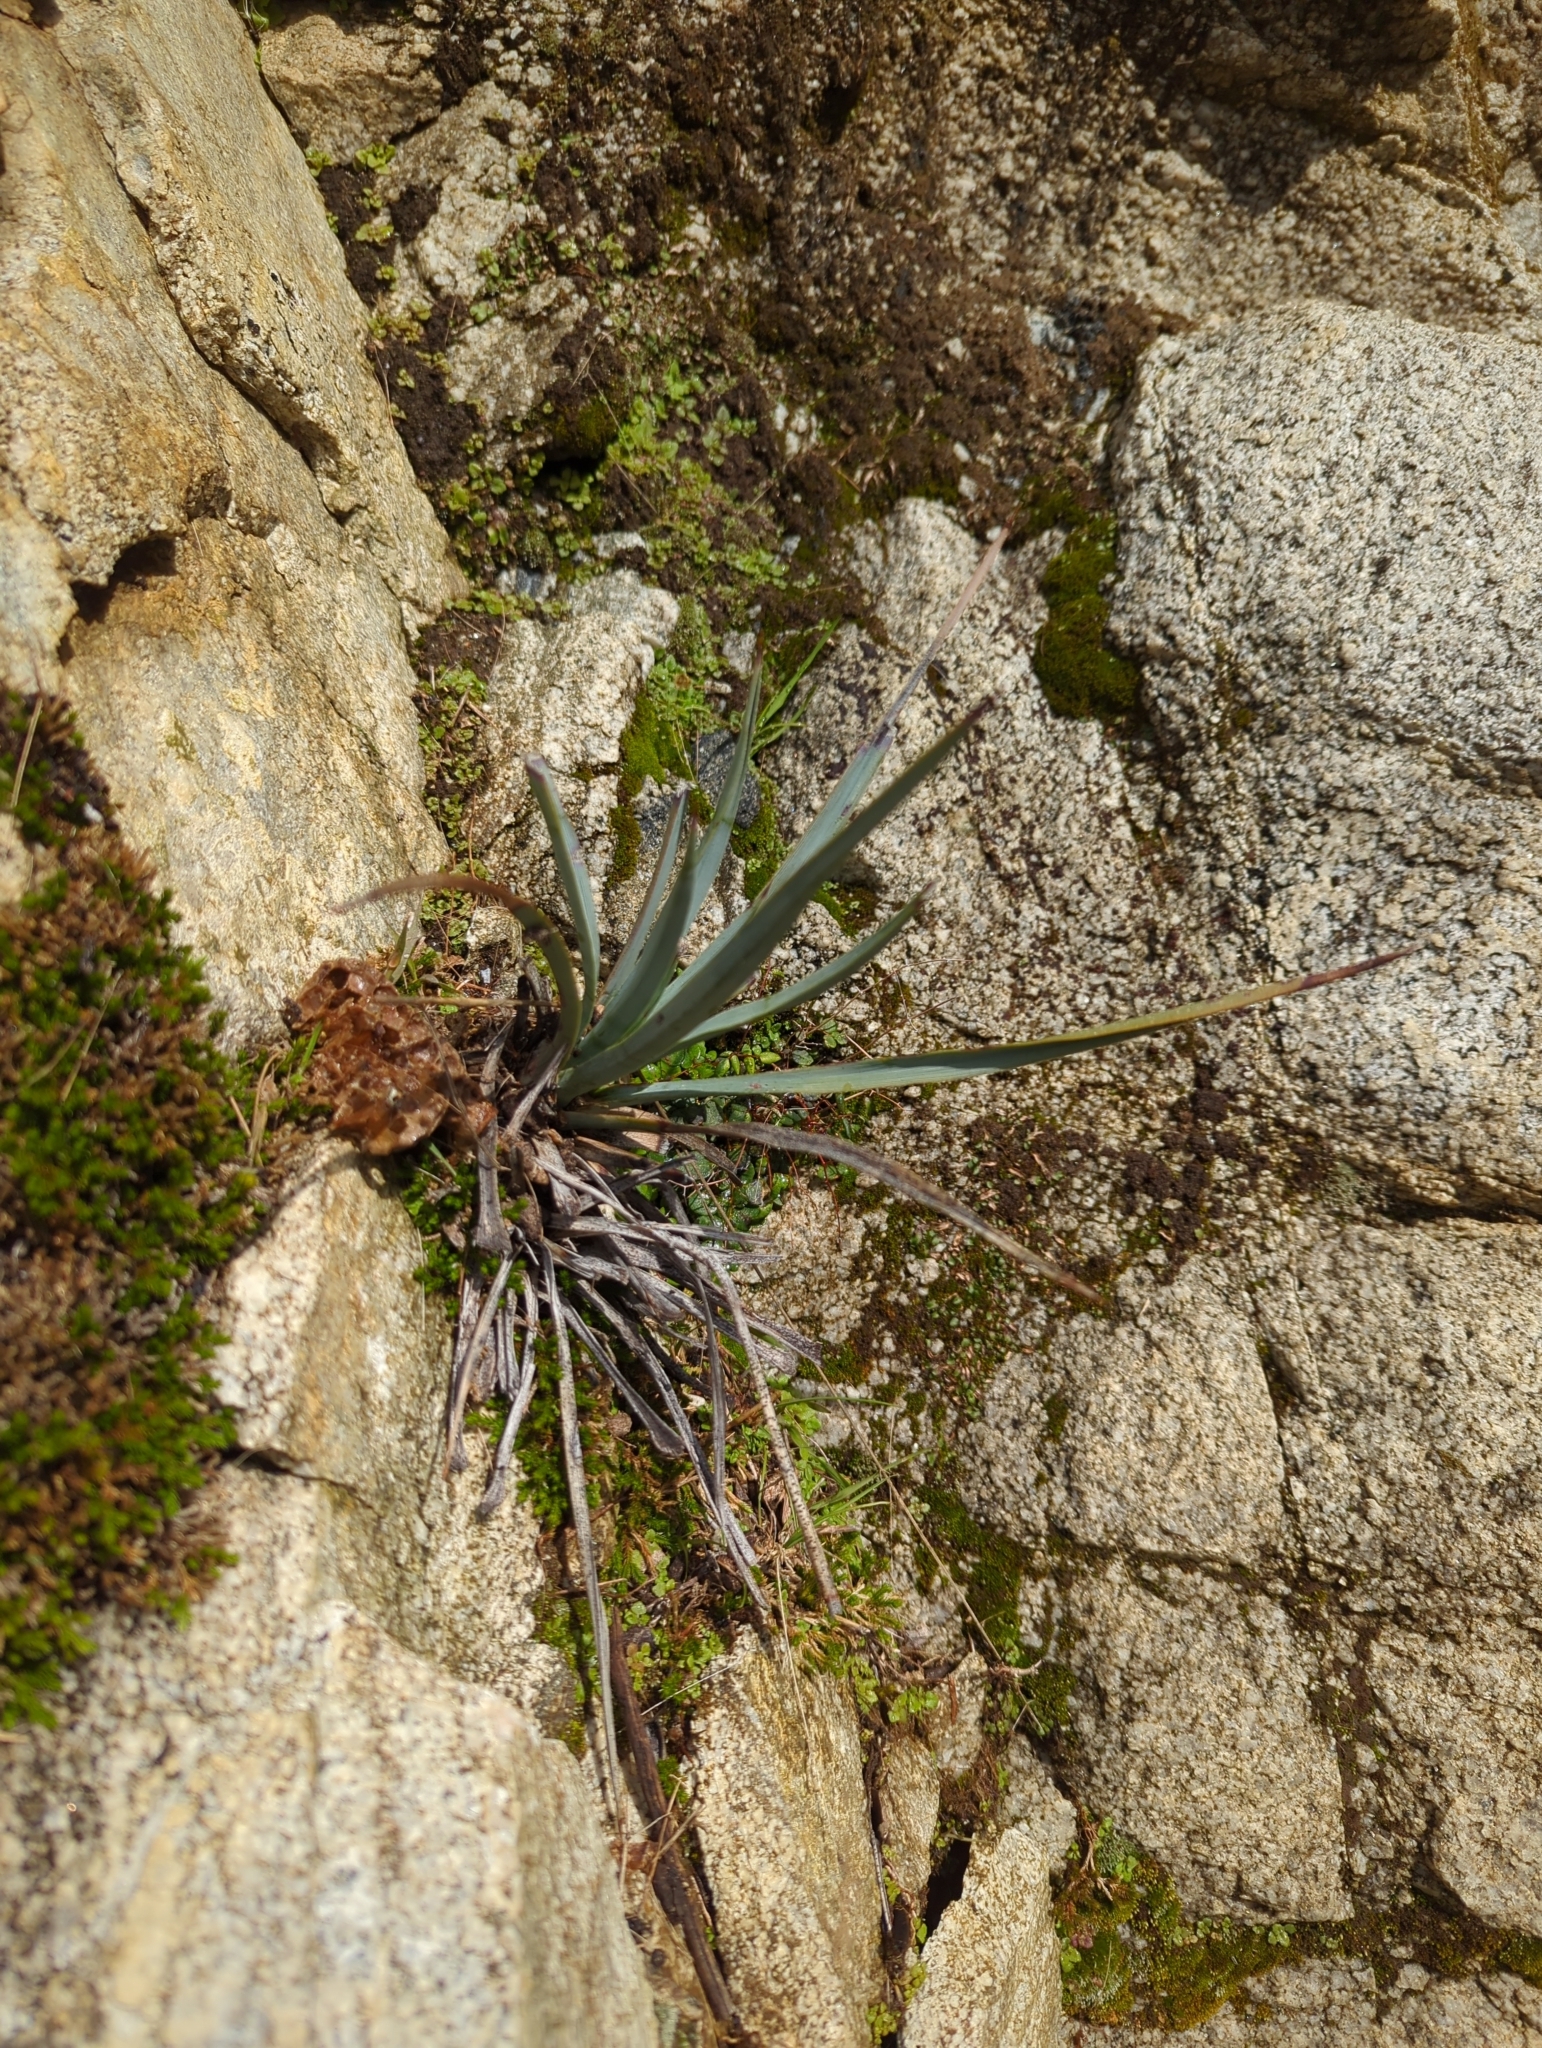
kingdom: Plantae
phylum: Tracheophyta
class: Liliopsida
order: Asparagales
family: Asparagaceae
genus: Hesperoyucca
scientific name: Hesperoyucca whipplei
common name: Our lord's-candle
